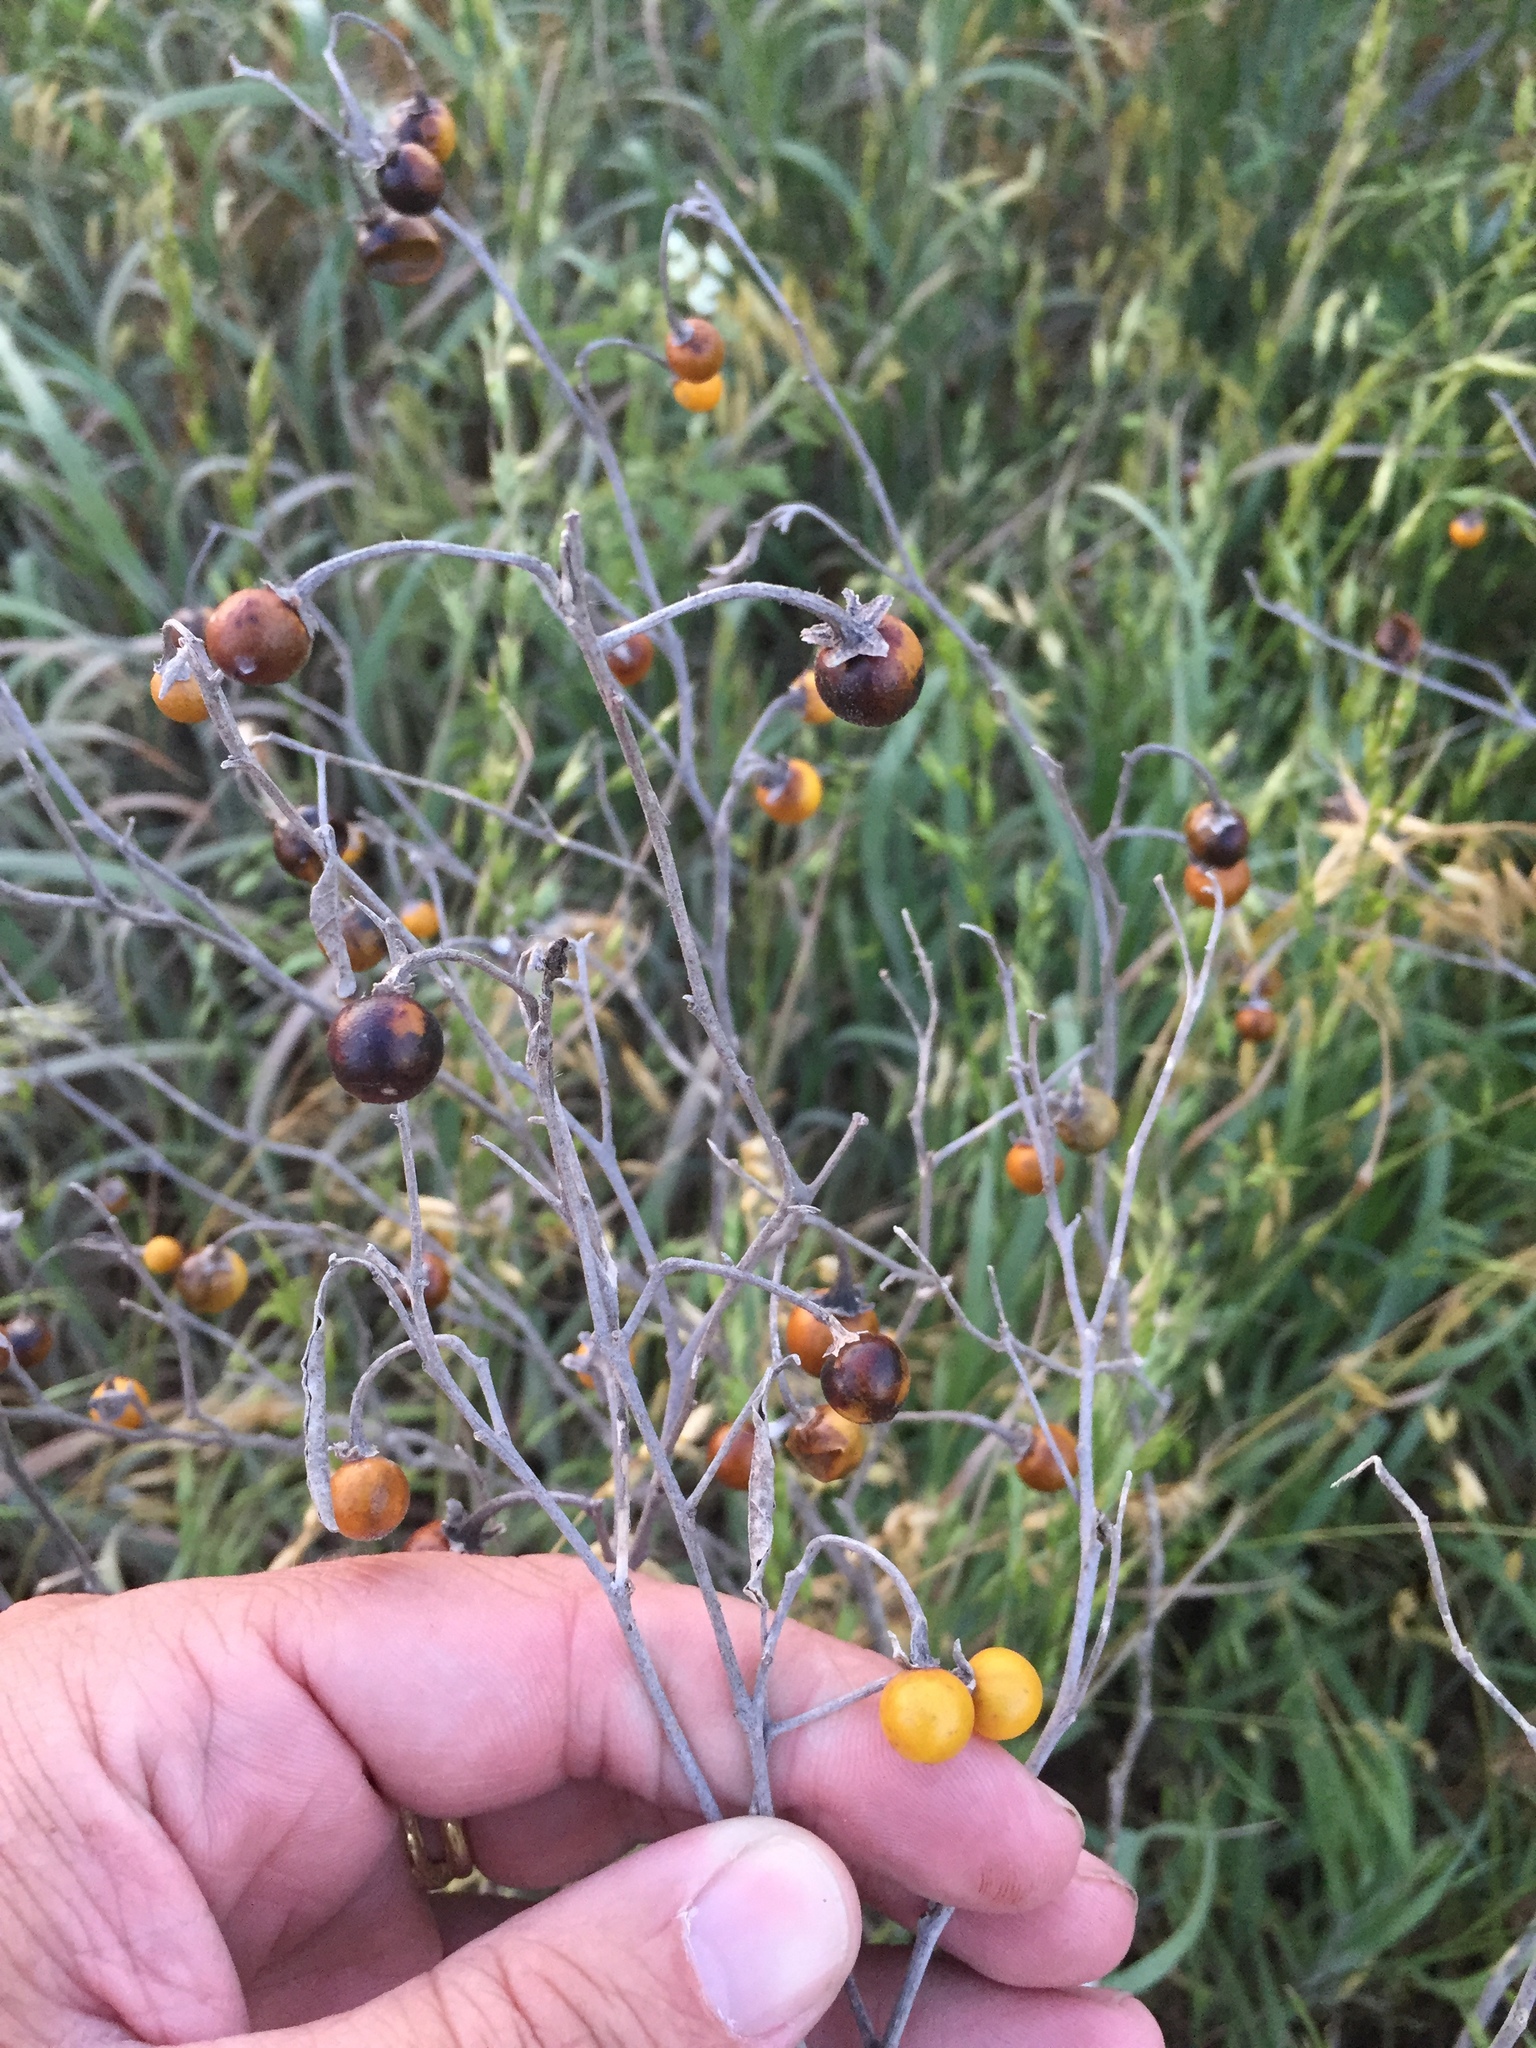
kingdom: Plantae
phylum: Tracheophyta
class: Magnoliopsida
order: Solanales
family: Solanaceae
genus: Solanum
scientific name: Solanum elaeagnifolium
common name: Silverleaf nightshade
